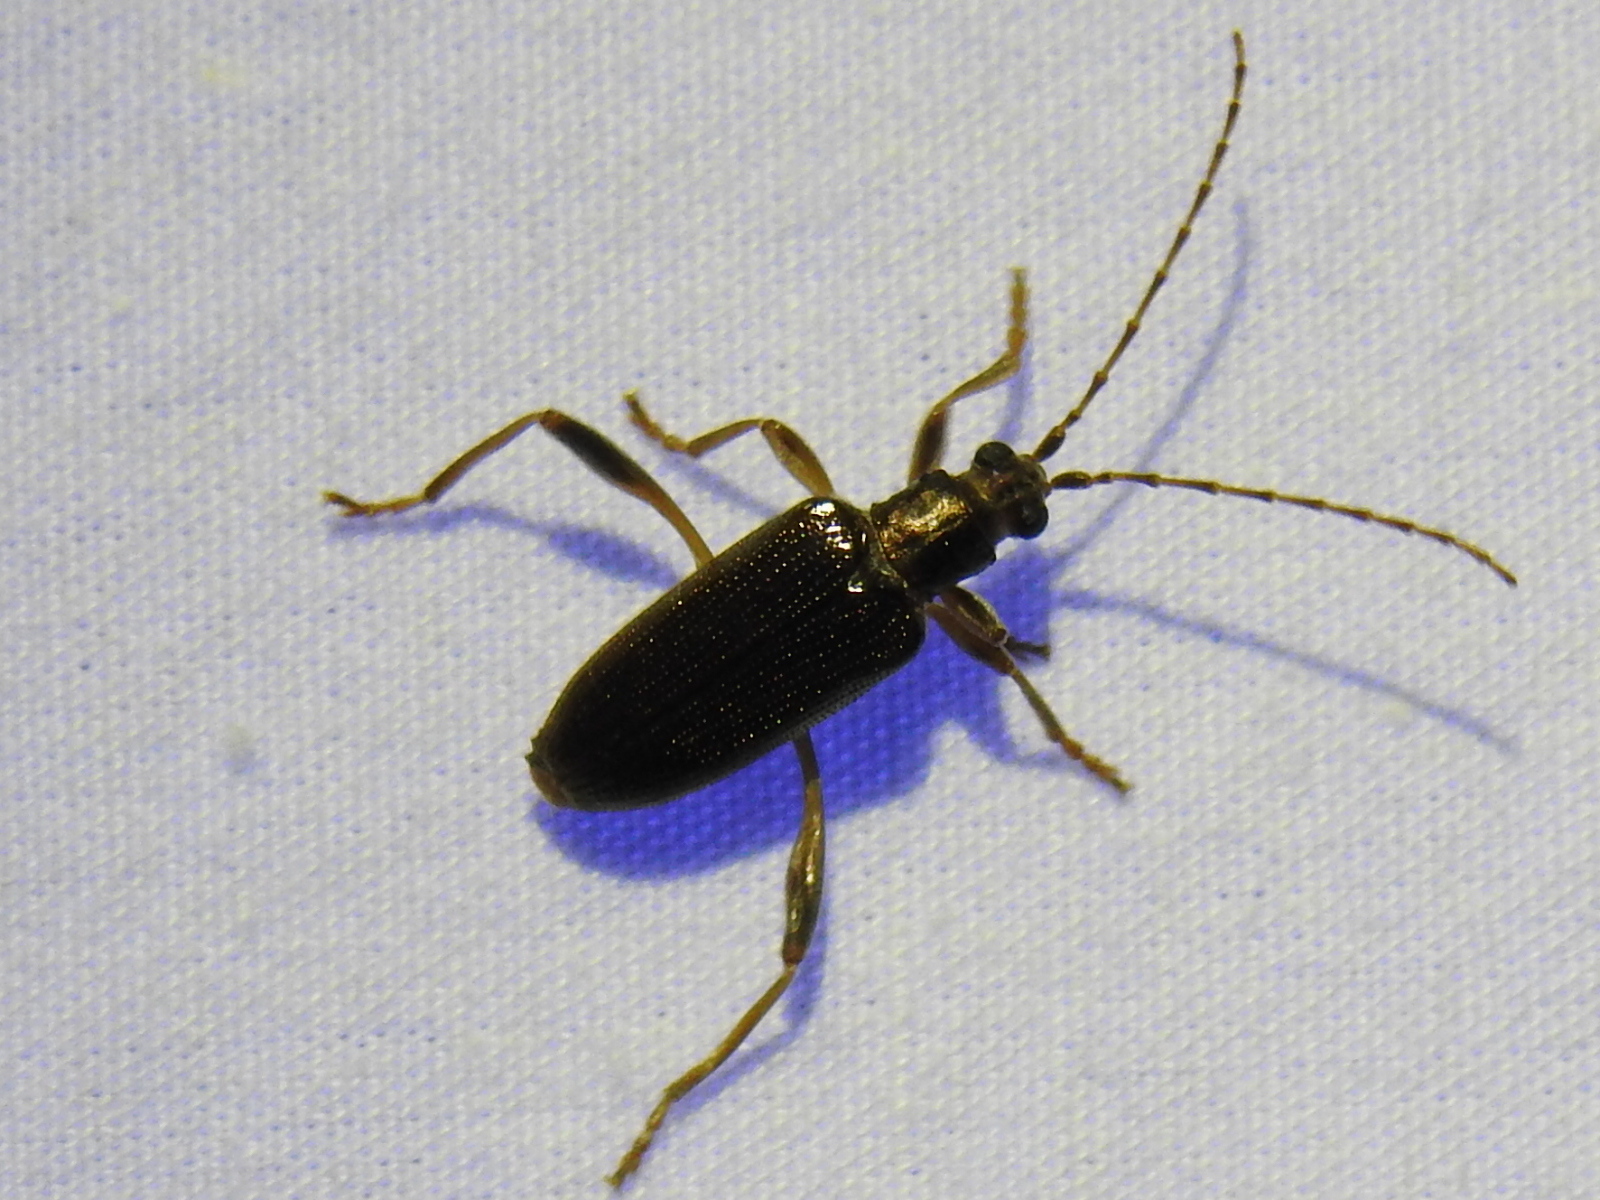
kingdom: Animalia
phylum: Arthropoda
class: Insecta
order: Coleoptera
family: Chrysomelidae
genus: Donacia
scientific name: Donacia hypoleuca
